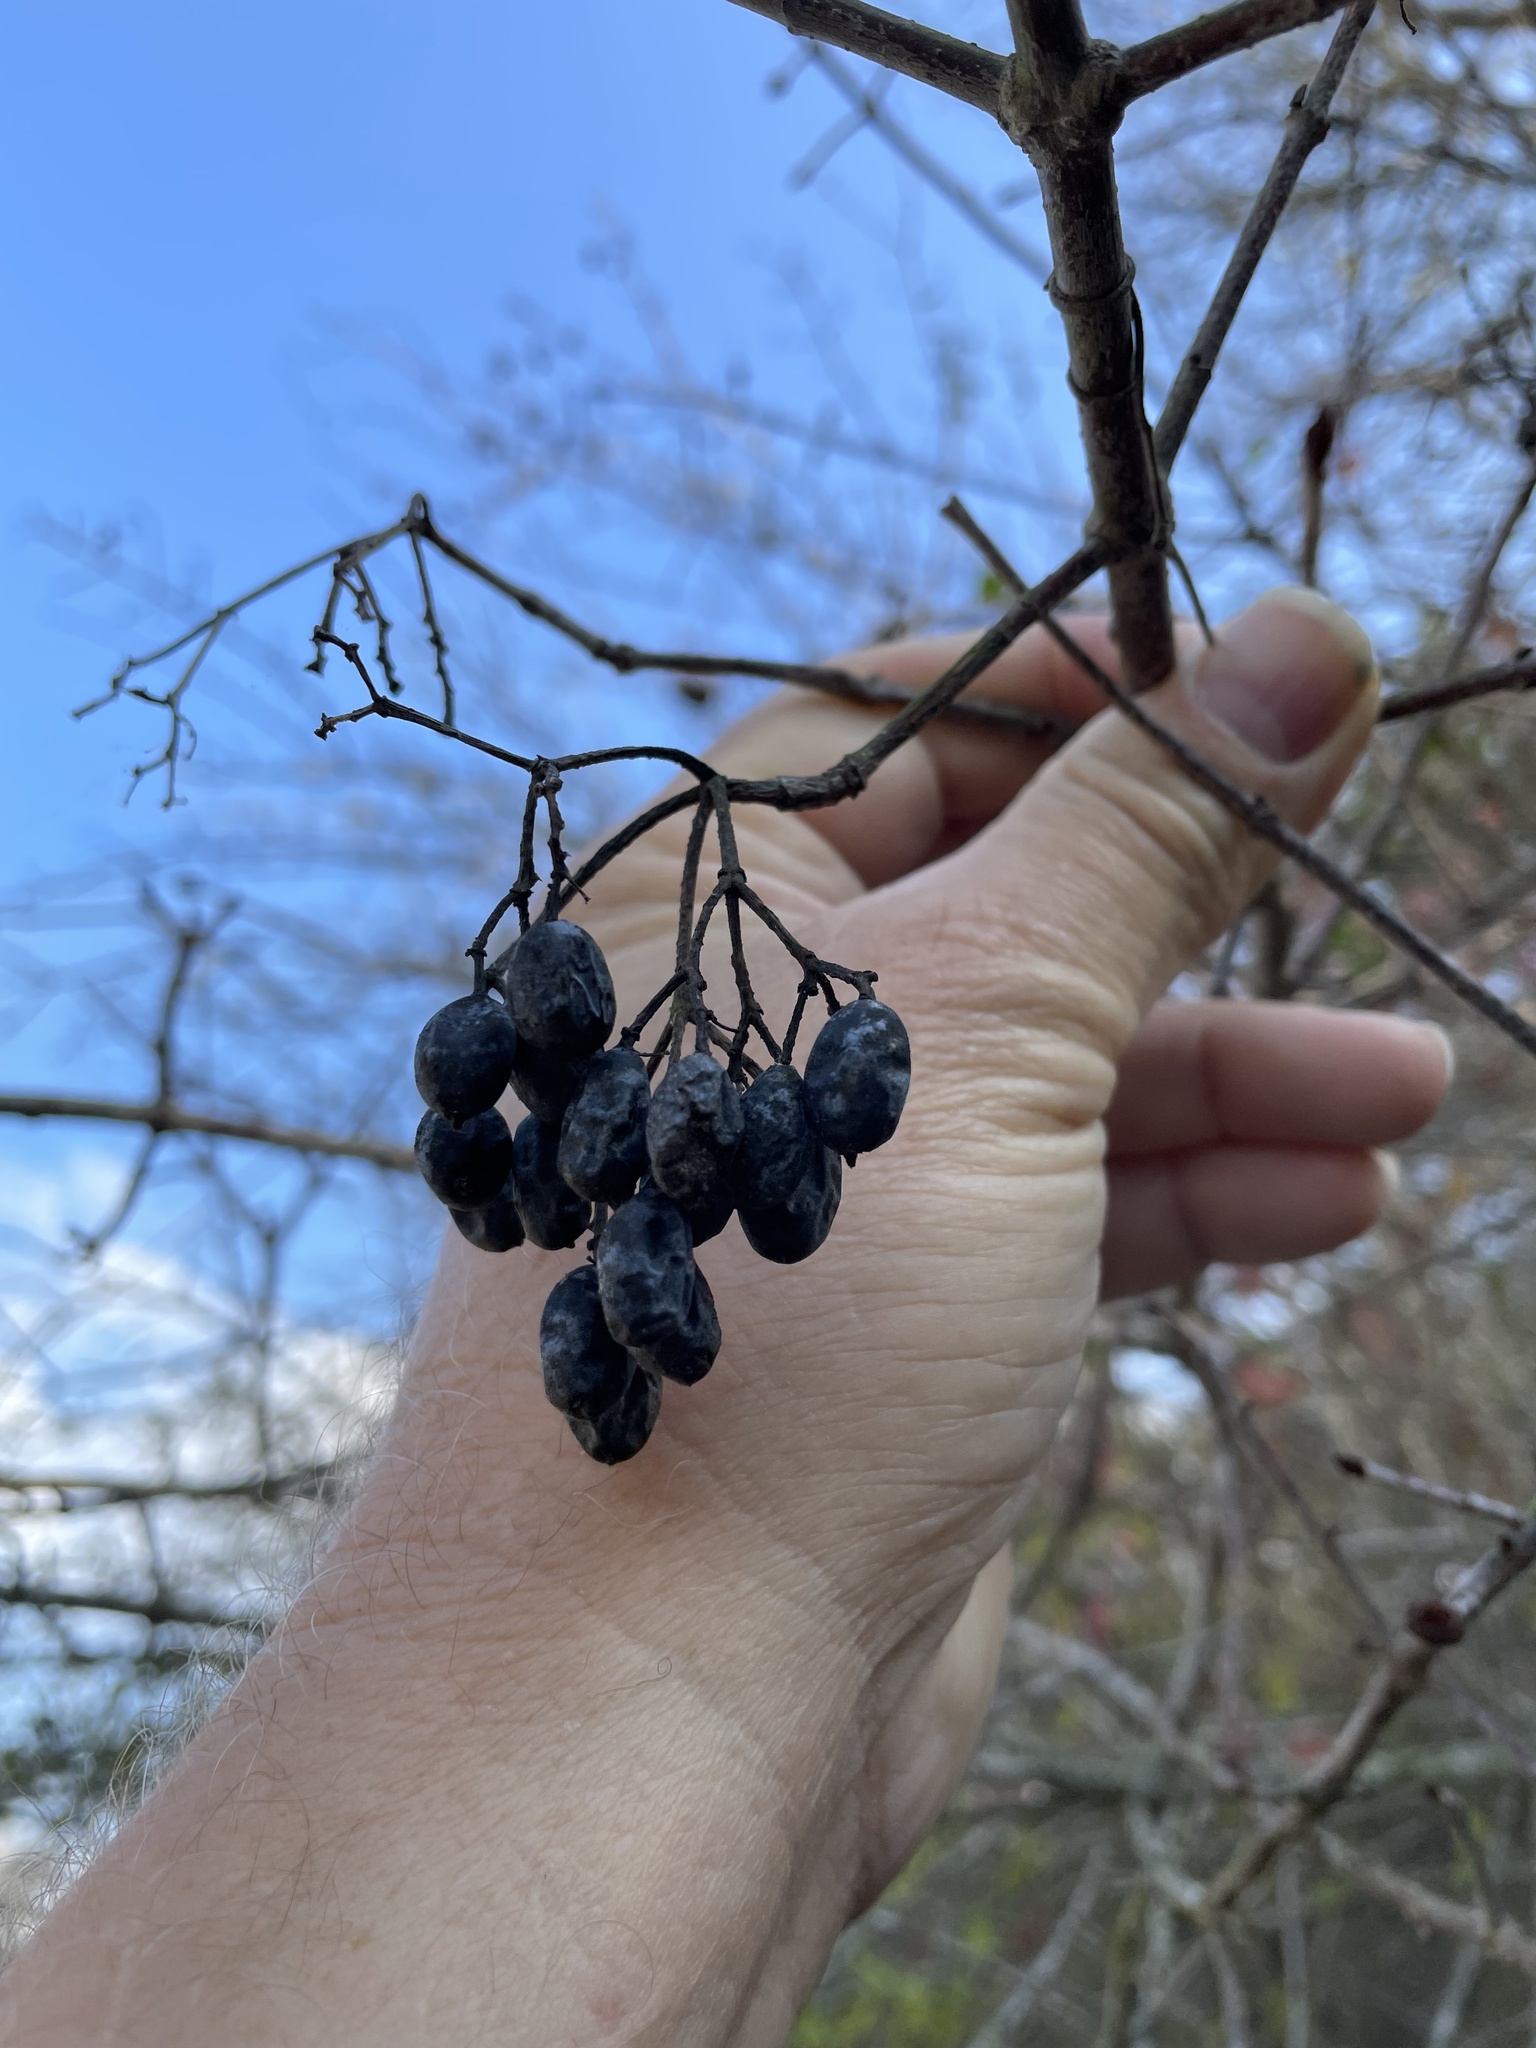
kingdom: Plantae
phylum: Tracheophyta
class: Magnoliopsida
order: Dipsacales
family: Viburnaceae
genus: Viburnum
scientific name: Viburnum rufidulum
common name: Blue haw
